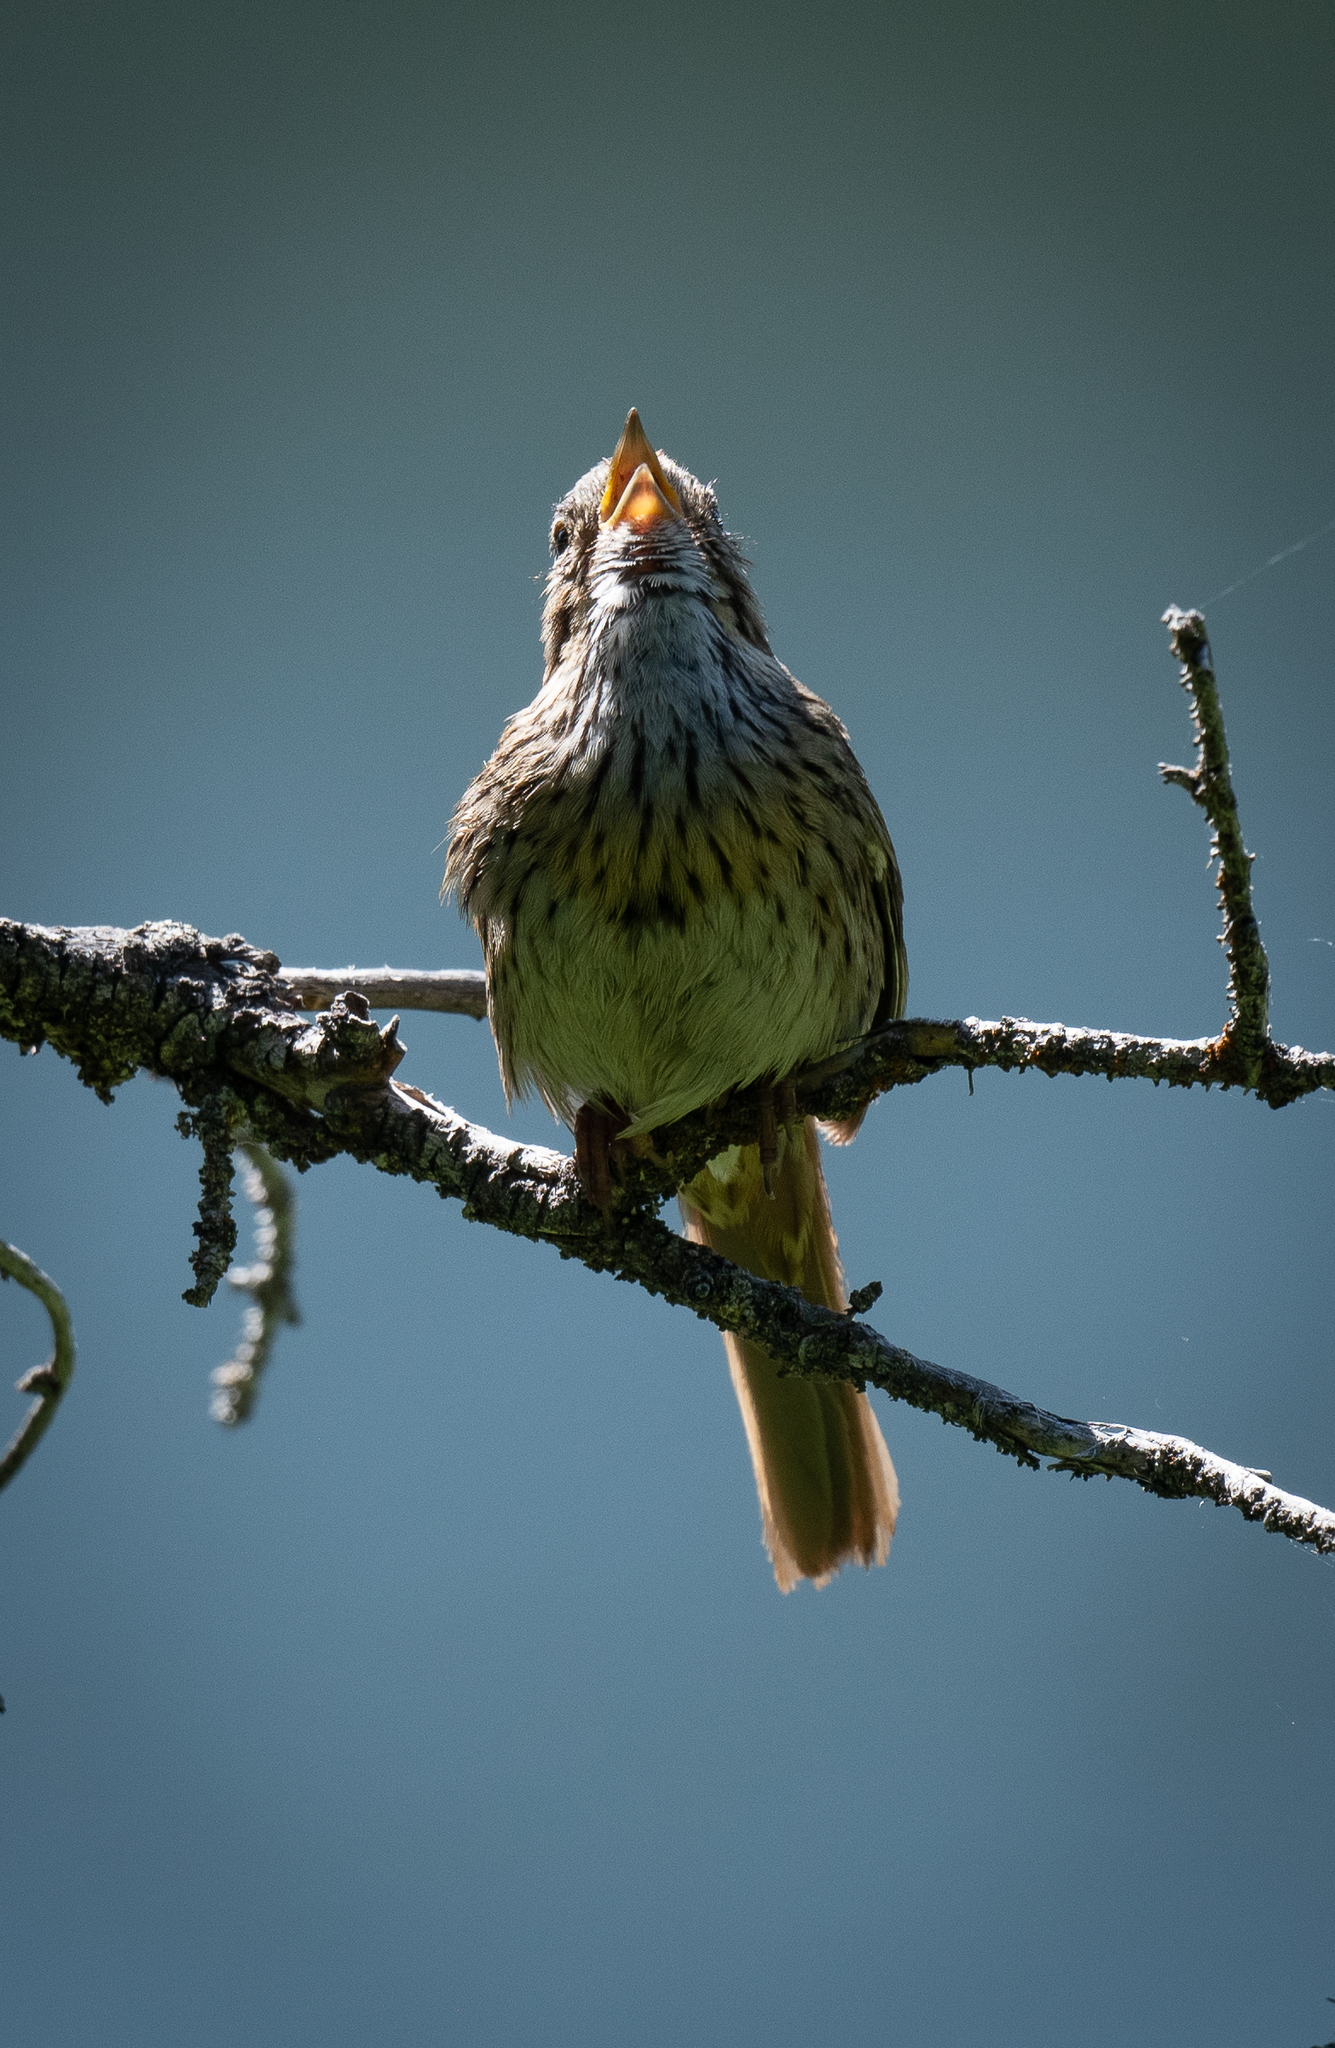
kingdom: Animalia
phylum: Chordata
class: Aves
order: Passeriformes
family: Passerellidae
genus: Melospiza
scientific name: Melospiza lincolnii
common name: Lincoln's sparrow
